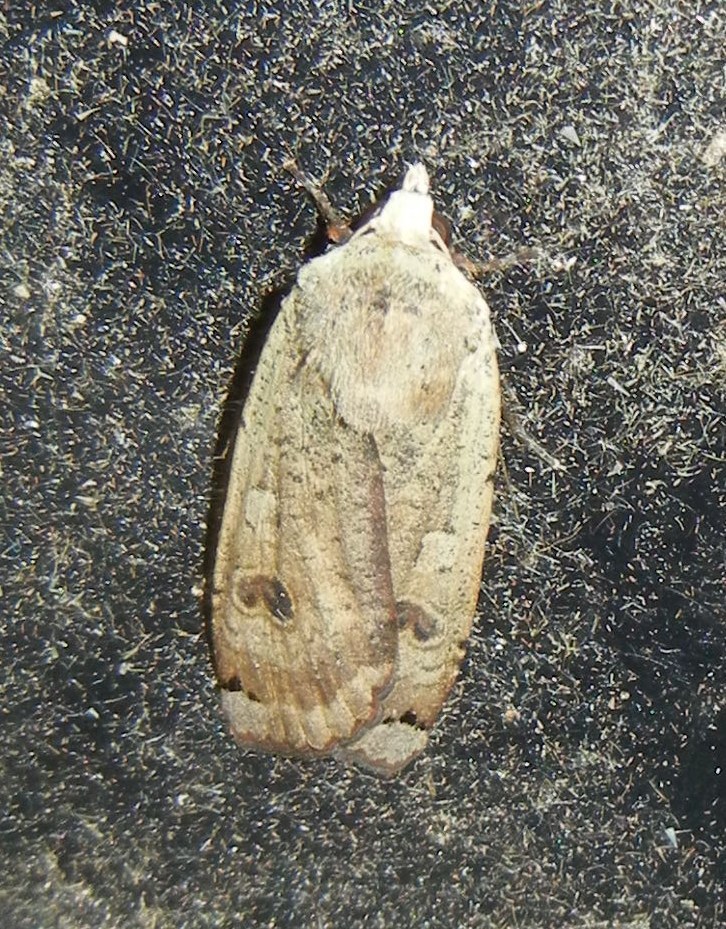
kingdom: Animalia
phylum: Arthropoda
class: Insecta
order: Lepidoptera
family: Noctuidae
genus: Noctua
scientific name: Noctua pronuba
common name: Large yellow underwing
